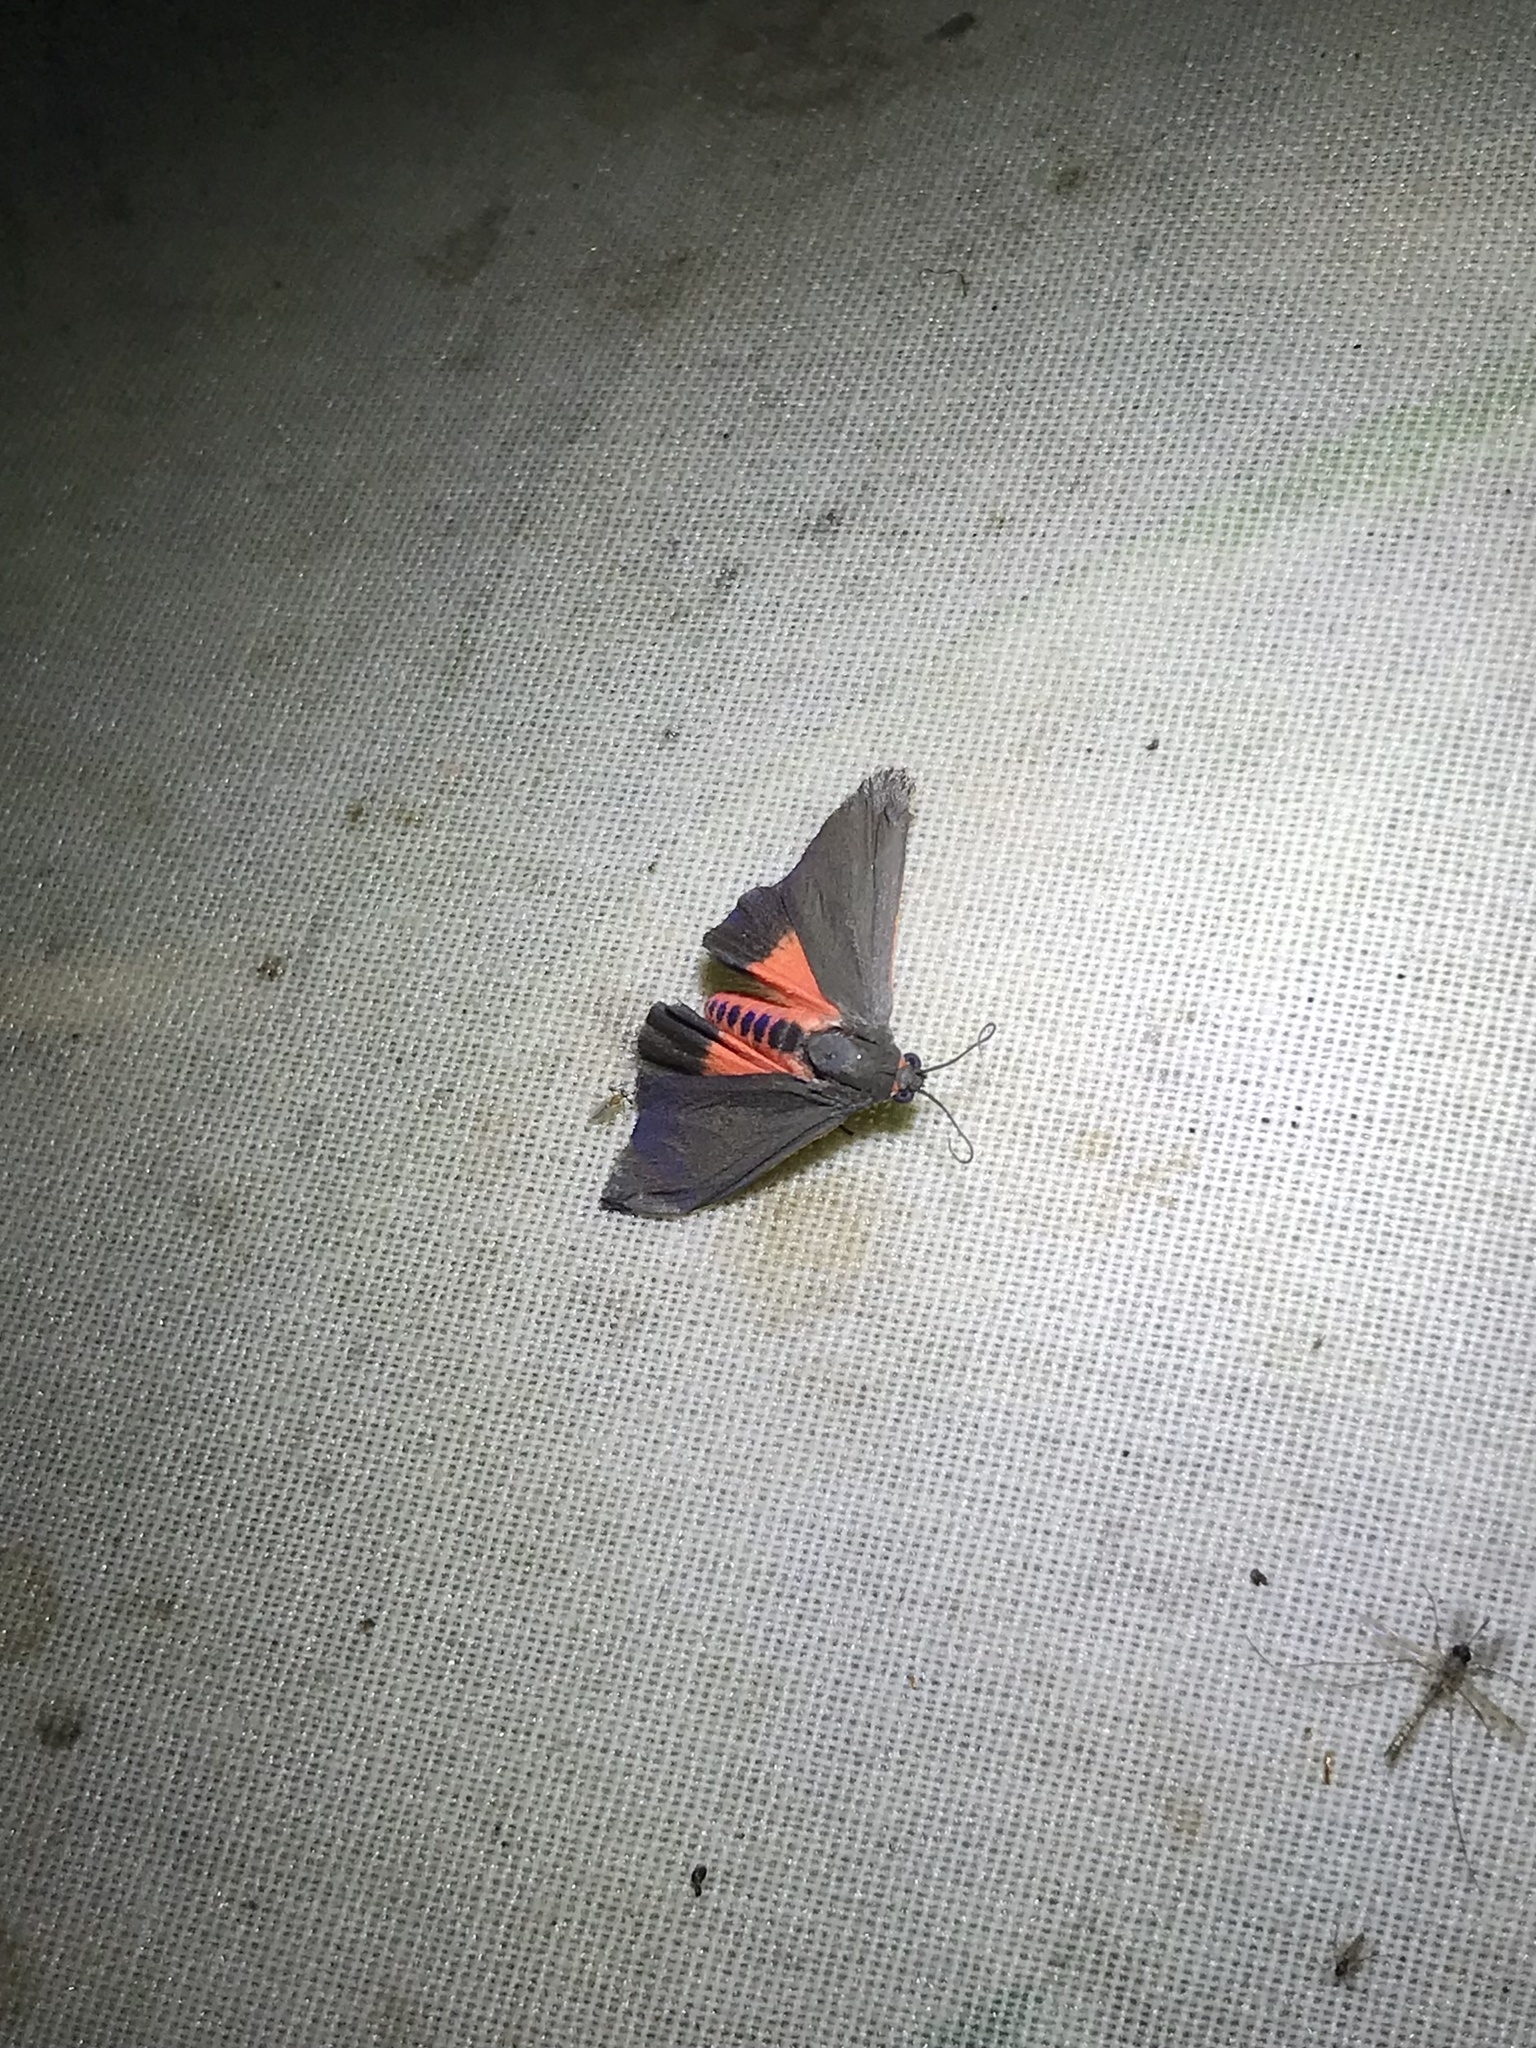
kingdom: Animalia
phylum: Arthropoda
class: Insecta
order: Lepidoptera
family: Erebidae
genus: Virbia
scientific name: Virbia laeta
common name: Joyful holomelina moth
